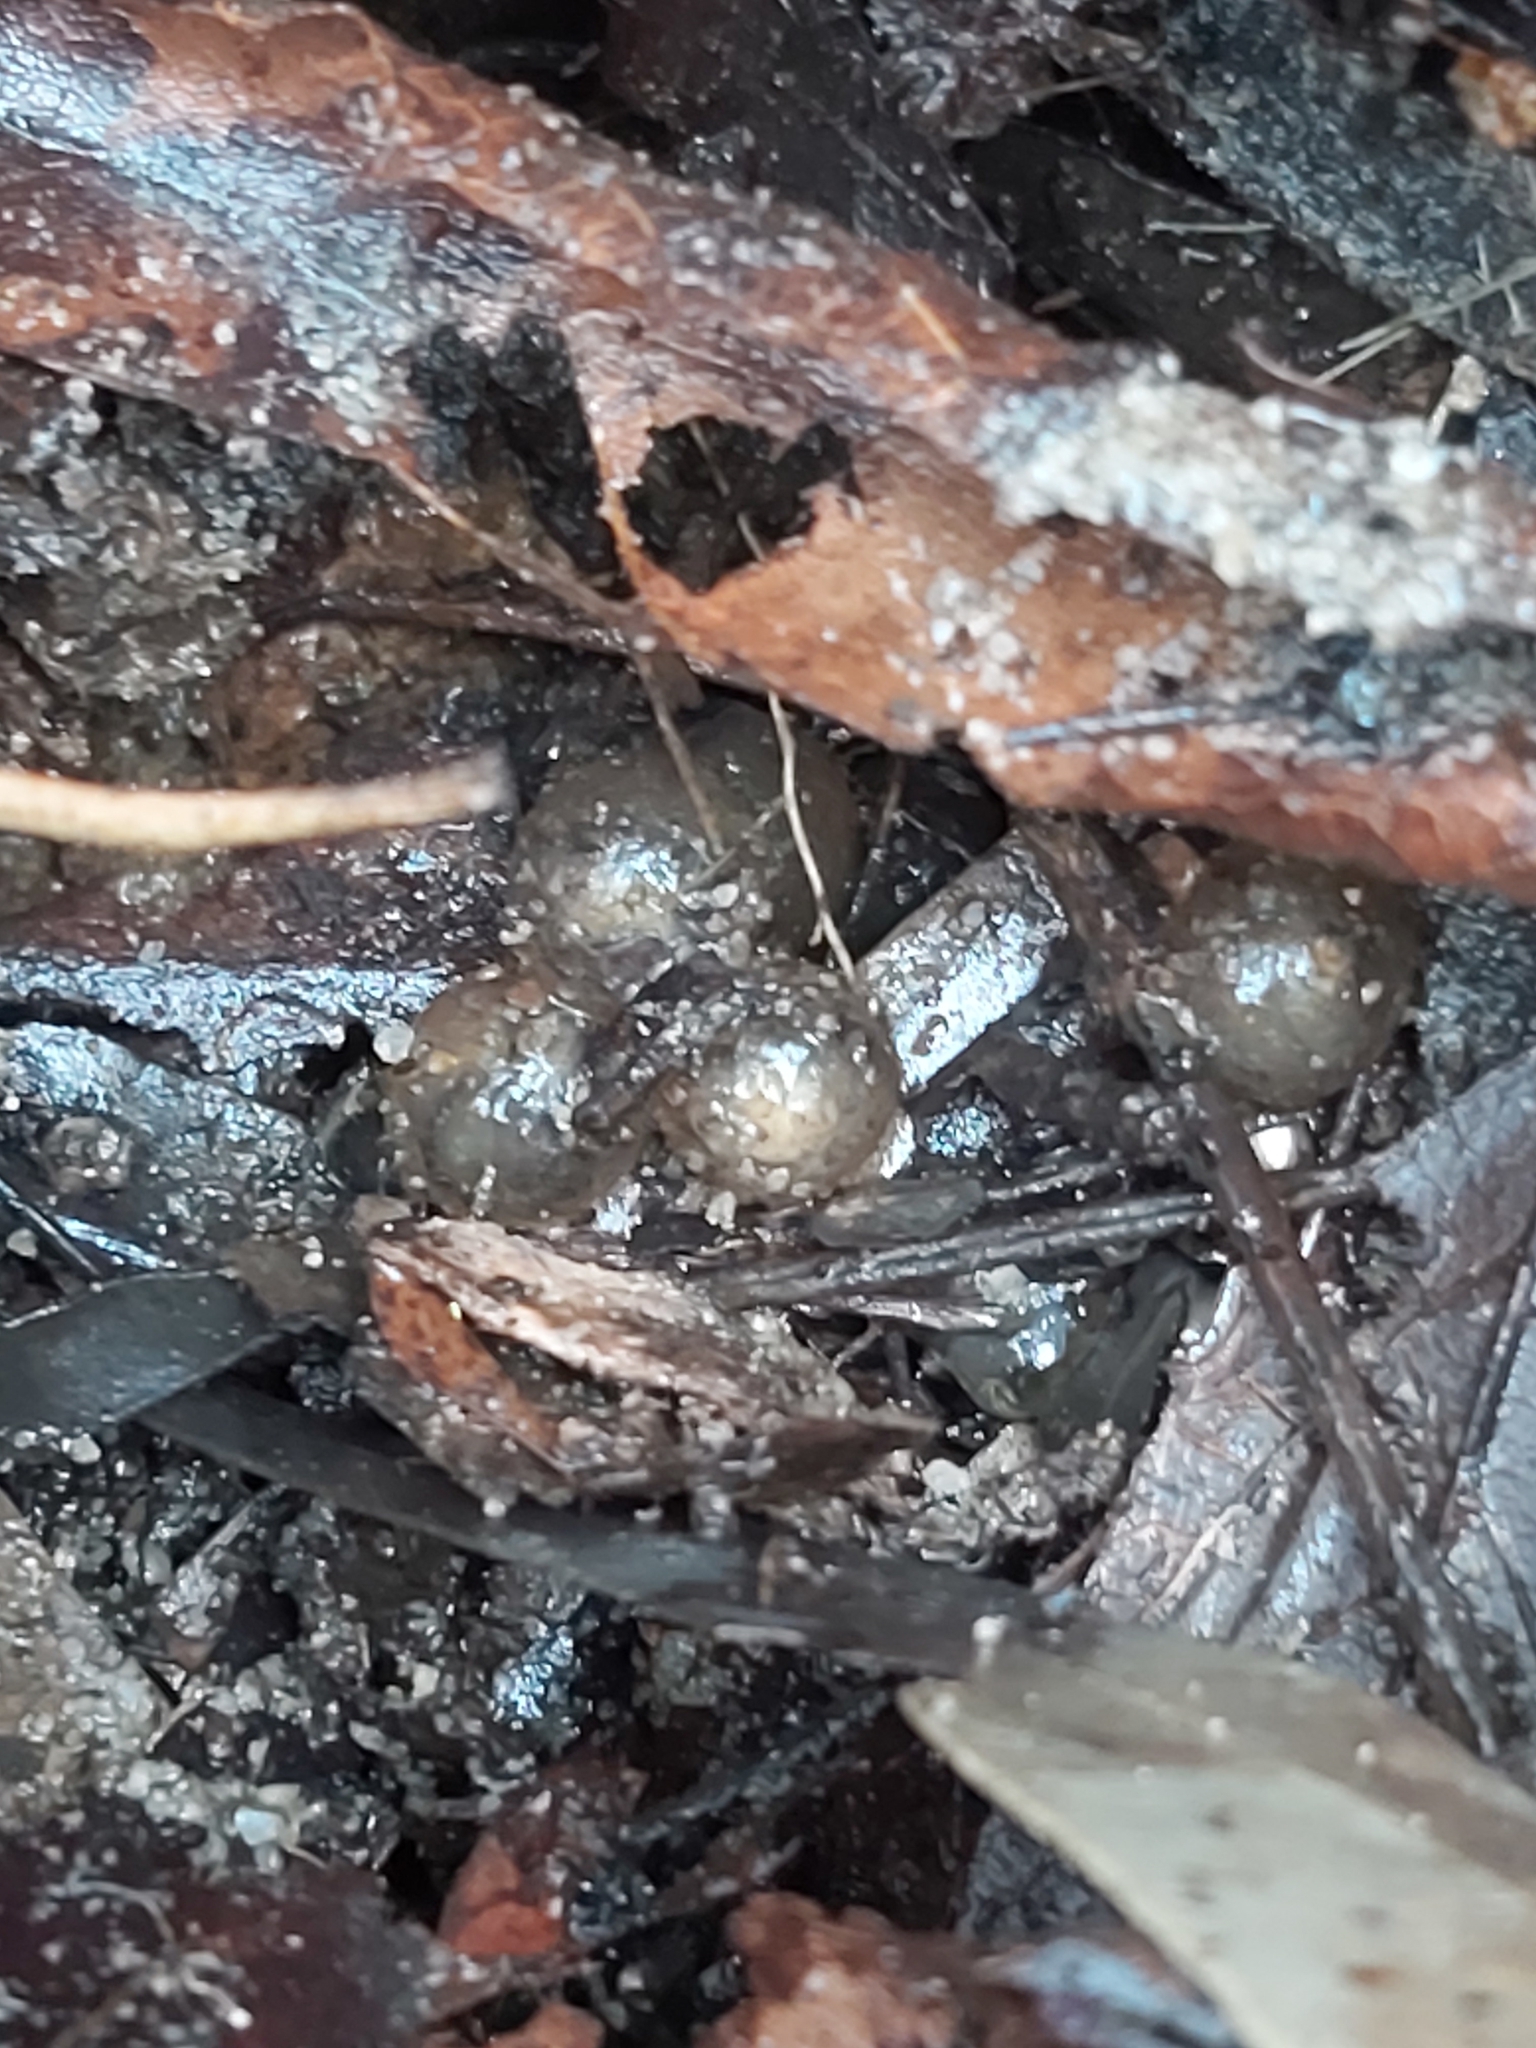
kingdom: Animalia
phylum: Chordata
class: Amphibia
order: Anura
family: Myobatrachidae
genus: Pseudophryne
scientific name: Pseudophryne australis
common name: Red-crowned toadlet
